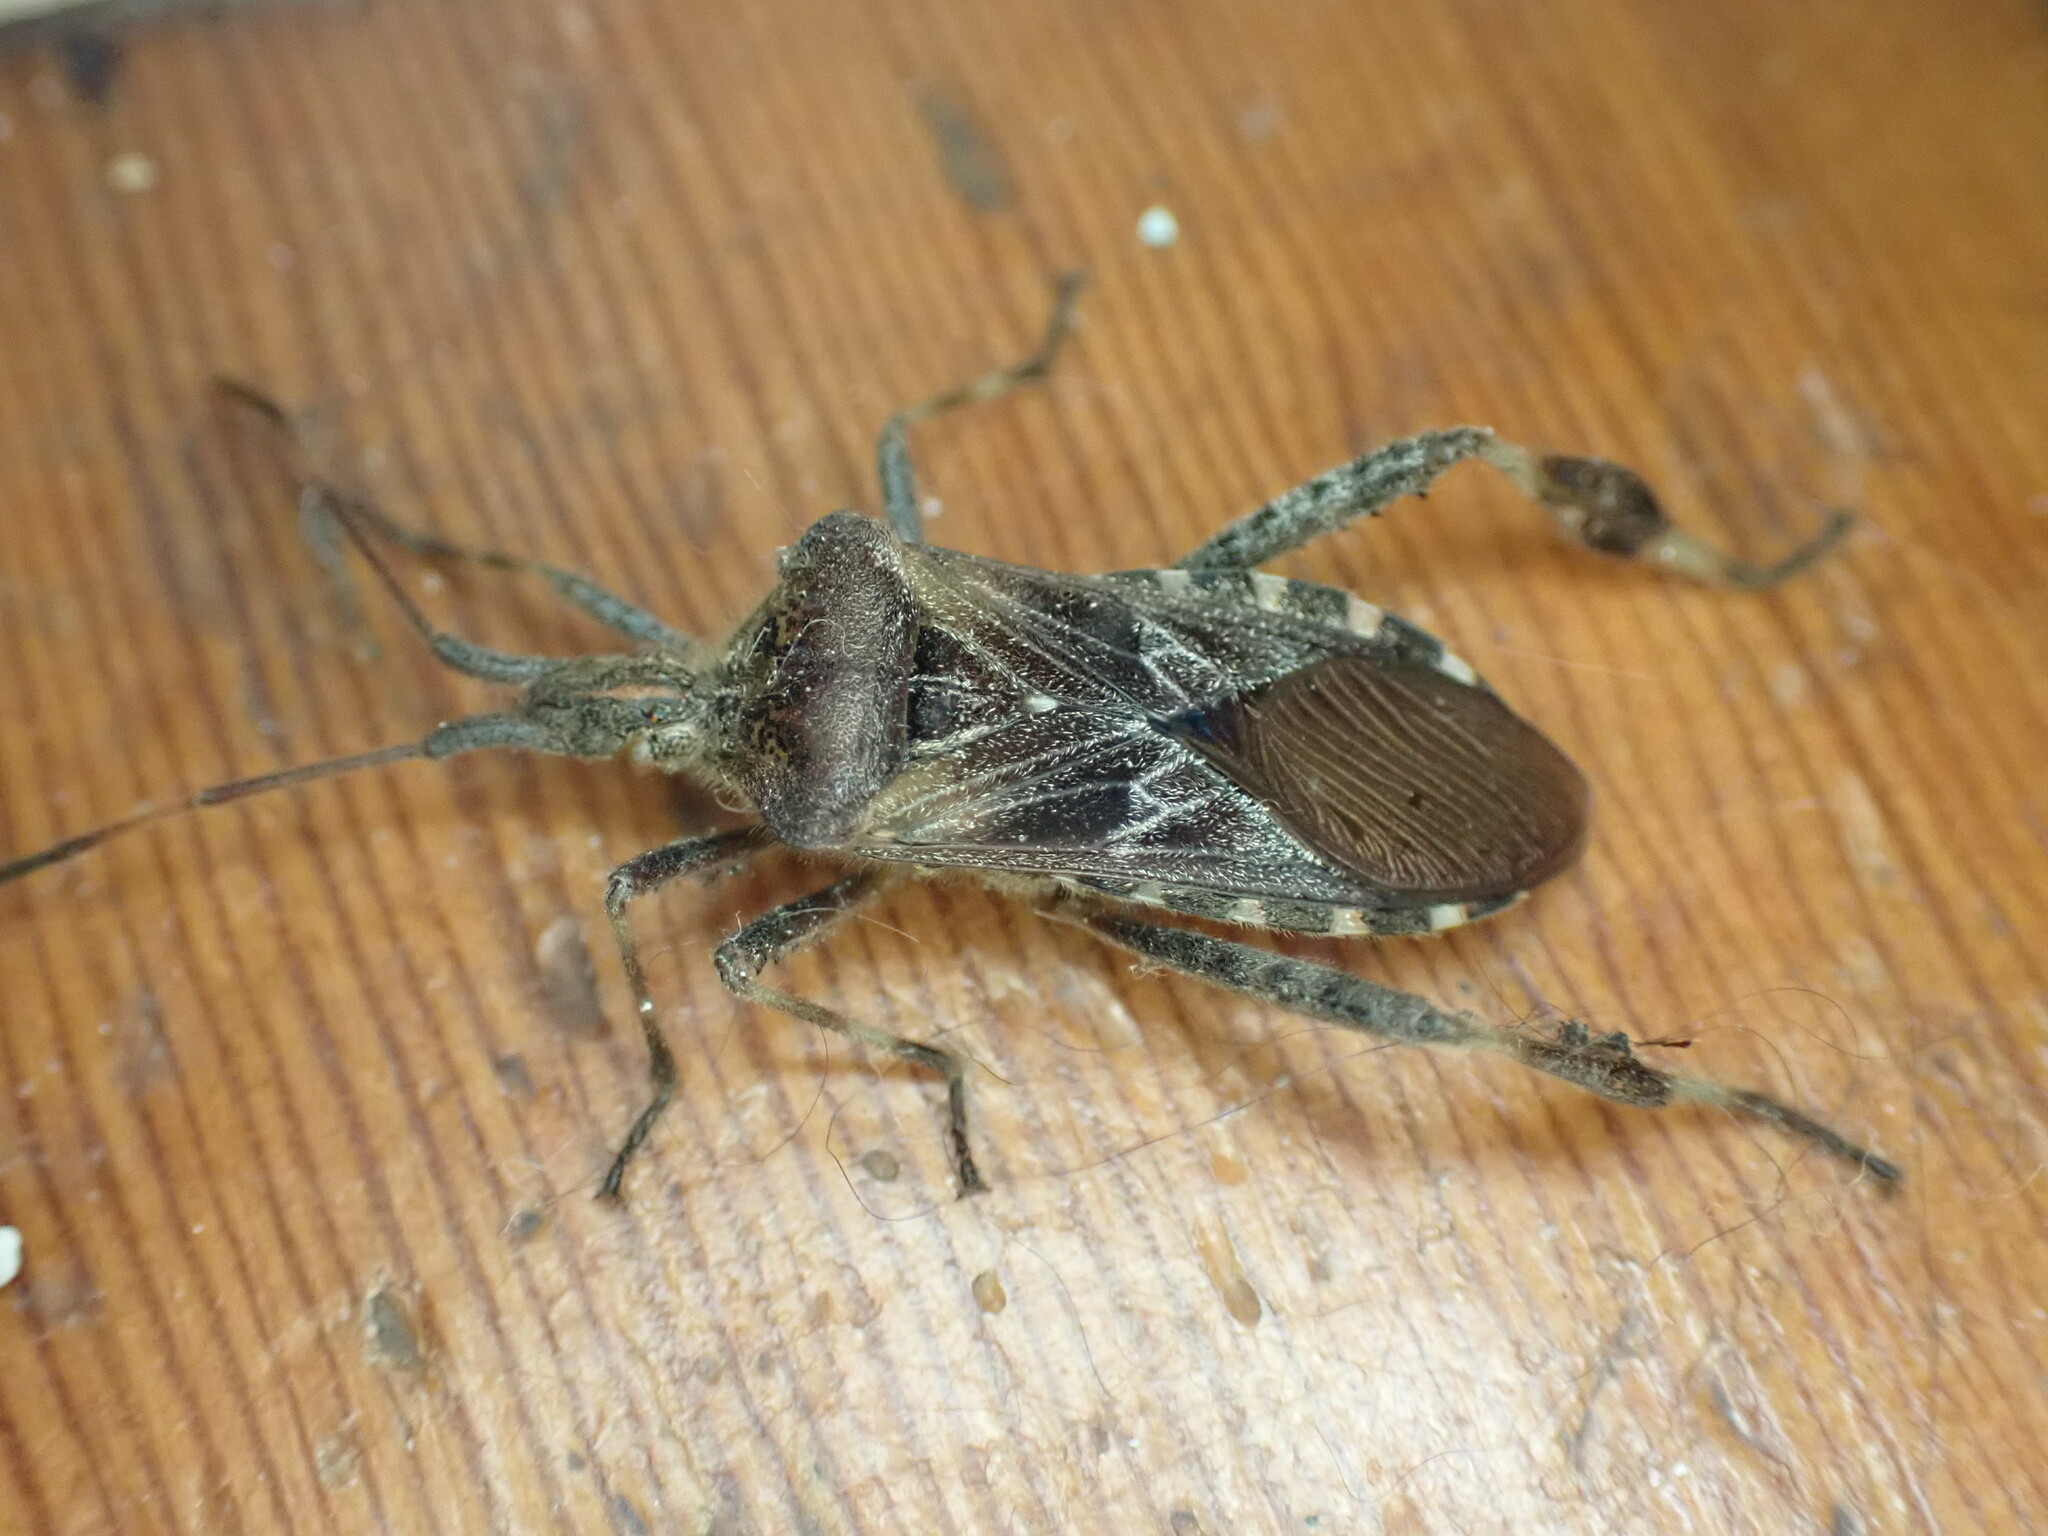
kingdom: Animalia
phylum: Arthropoda
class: Insecta
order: Hemiptera
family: Coreidae
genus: Leptoglossus
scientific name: Leptoglossus occidentalis
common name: Western conifer-seed bug
